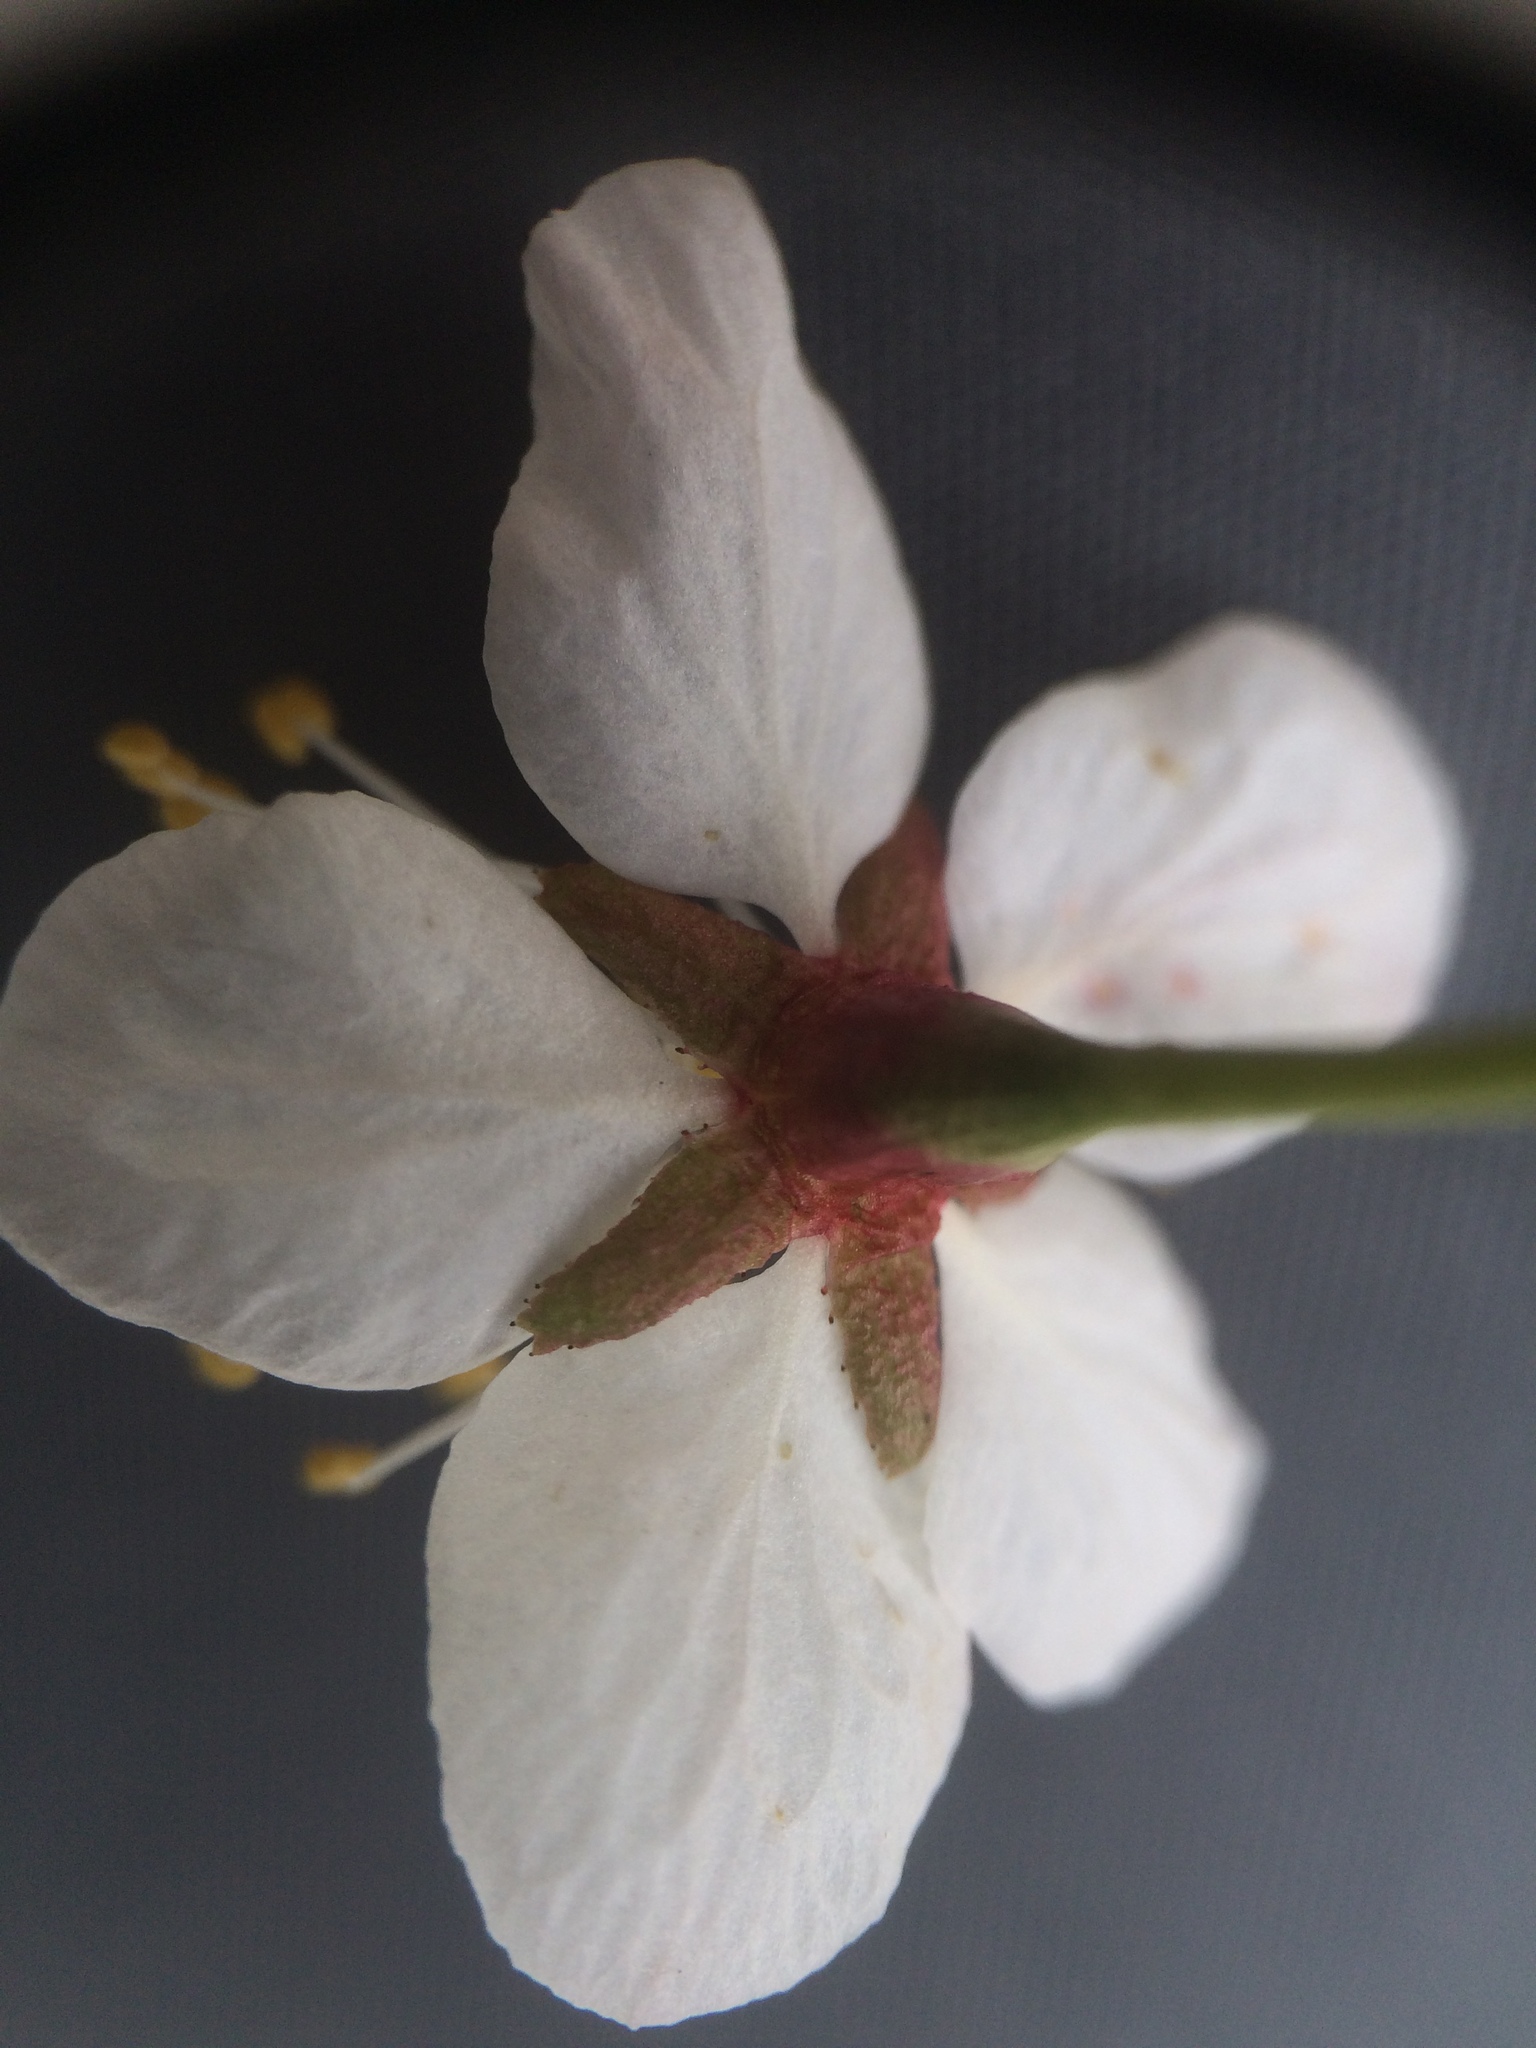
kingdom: Plantae
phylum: Tracheophyta
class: Magnoliopsida
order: Rosales
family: Rosaceae
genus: Prunus
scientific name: Prunus nigra
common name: Black plum
